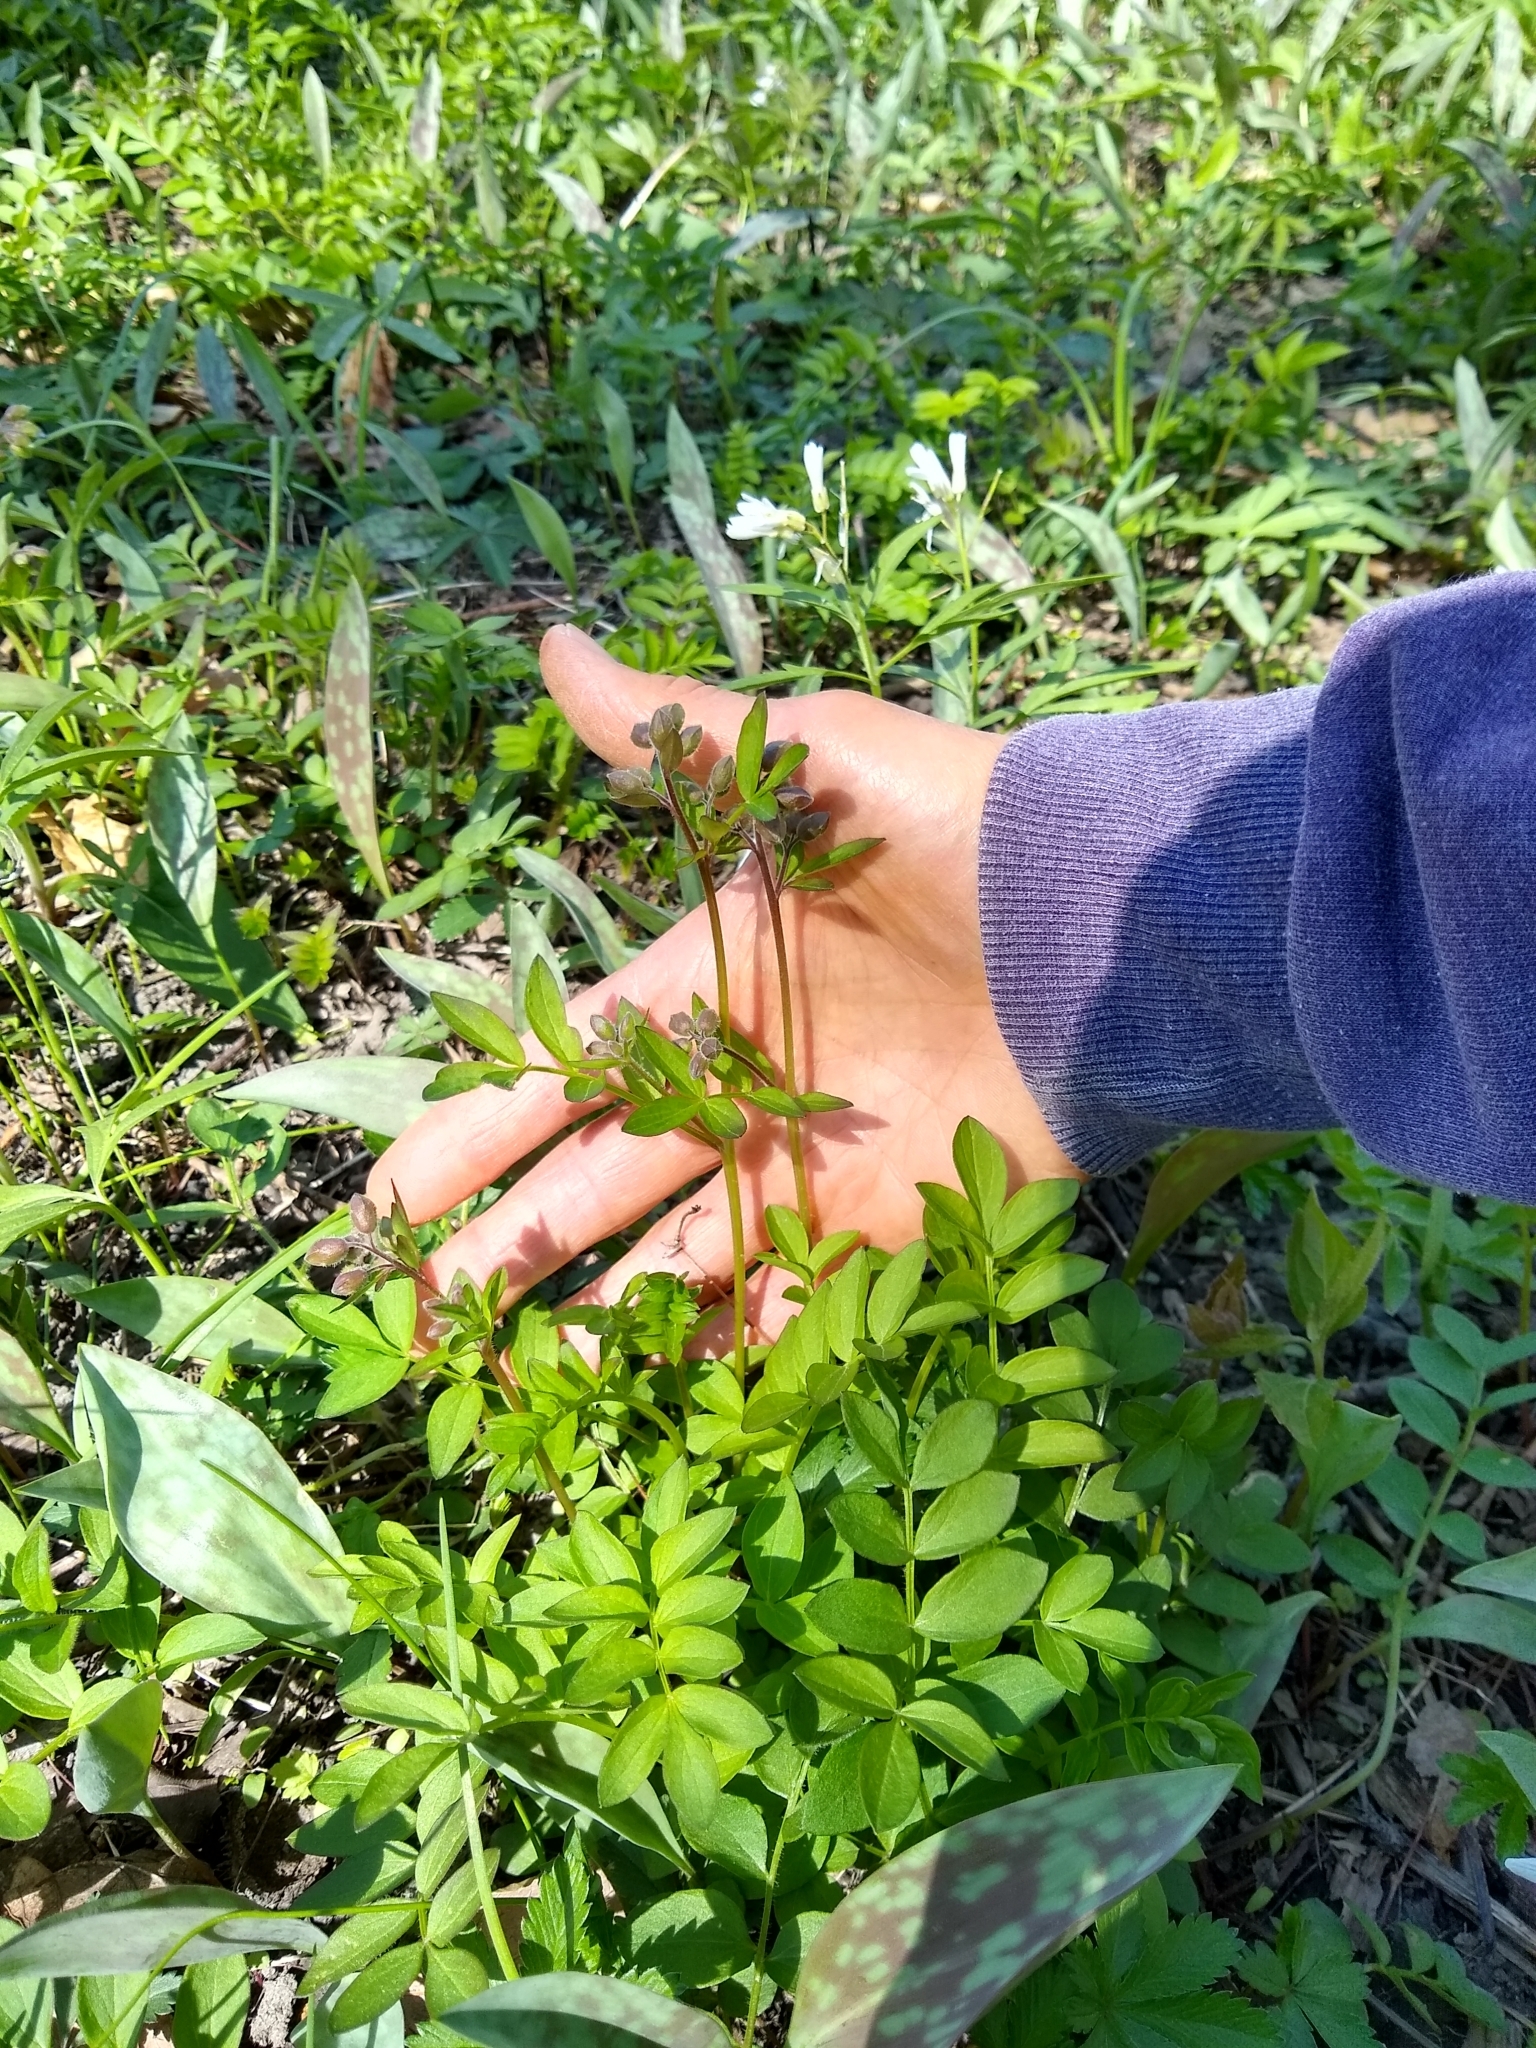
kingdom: Plantae
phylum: Tracheophyta
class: Magnoliopsida
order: Ericales
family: Polemoniaceae
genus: Polemonium
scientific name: Polemonium reptans
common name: Creeping jacob's-ladder
